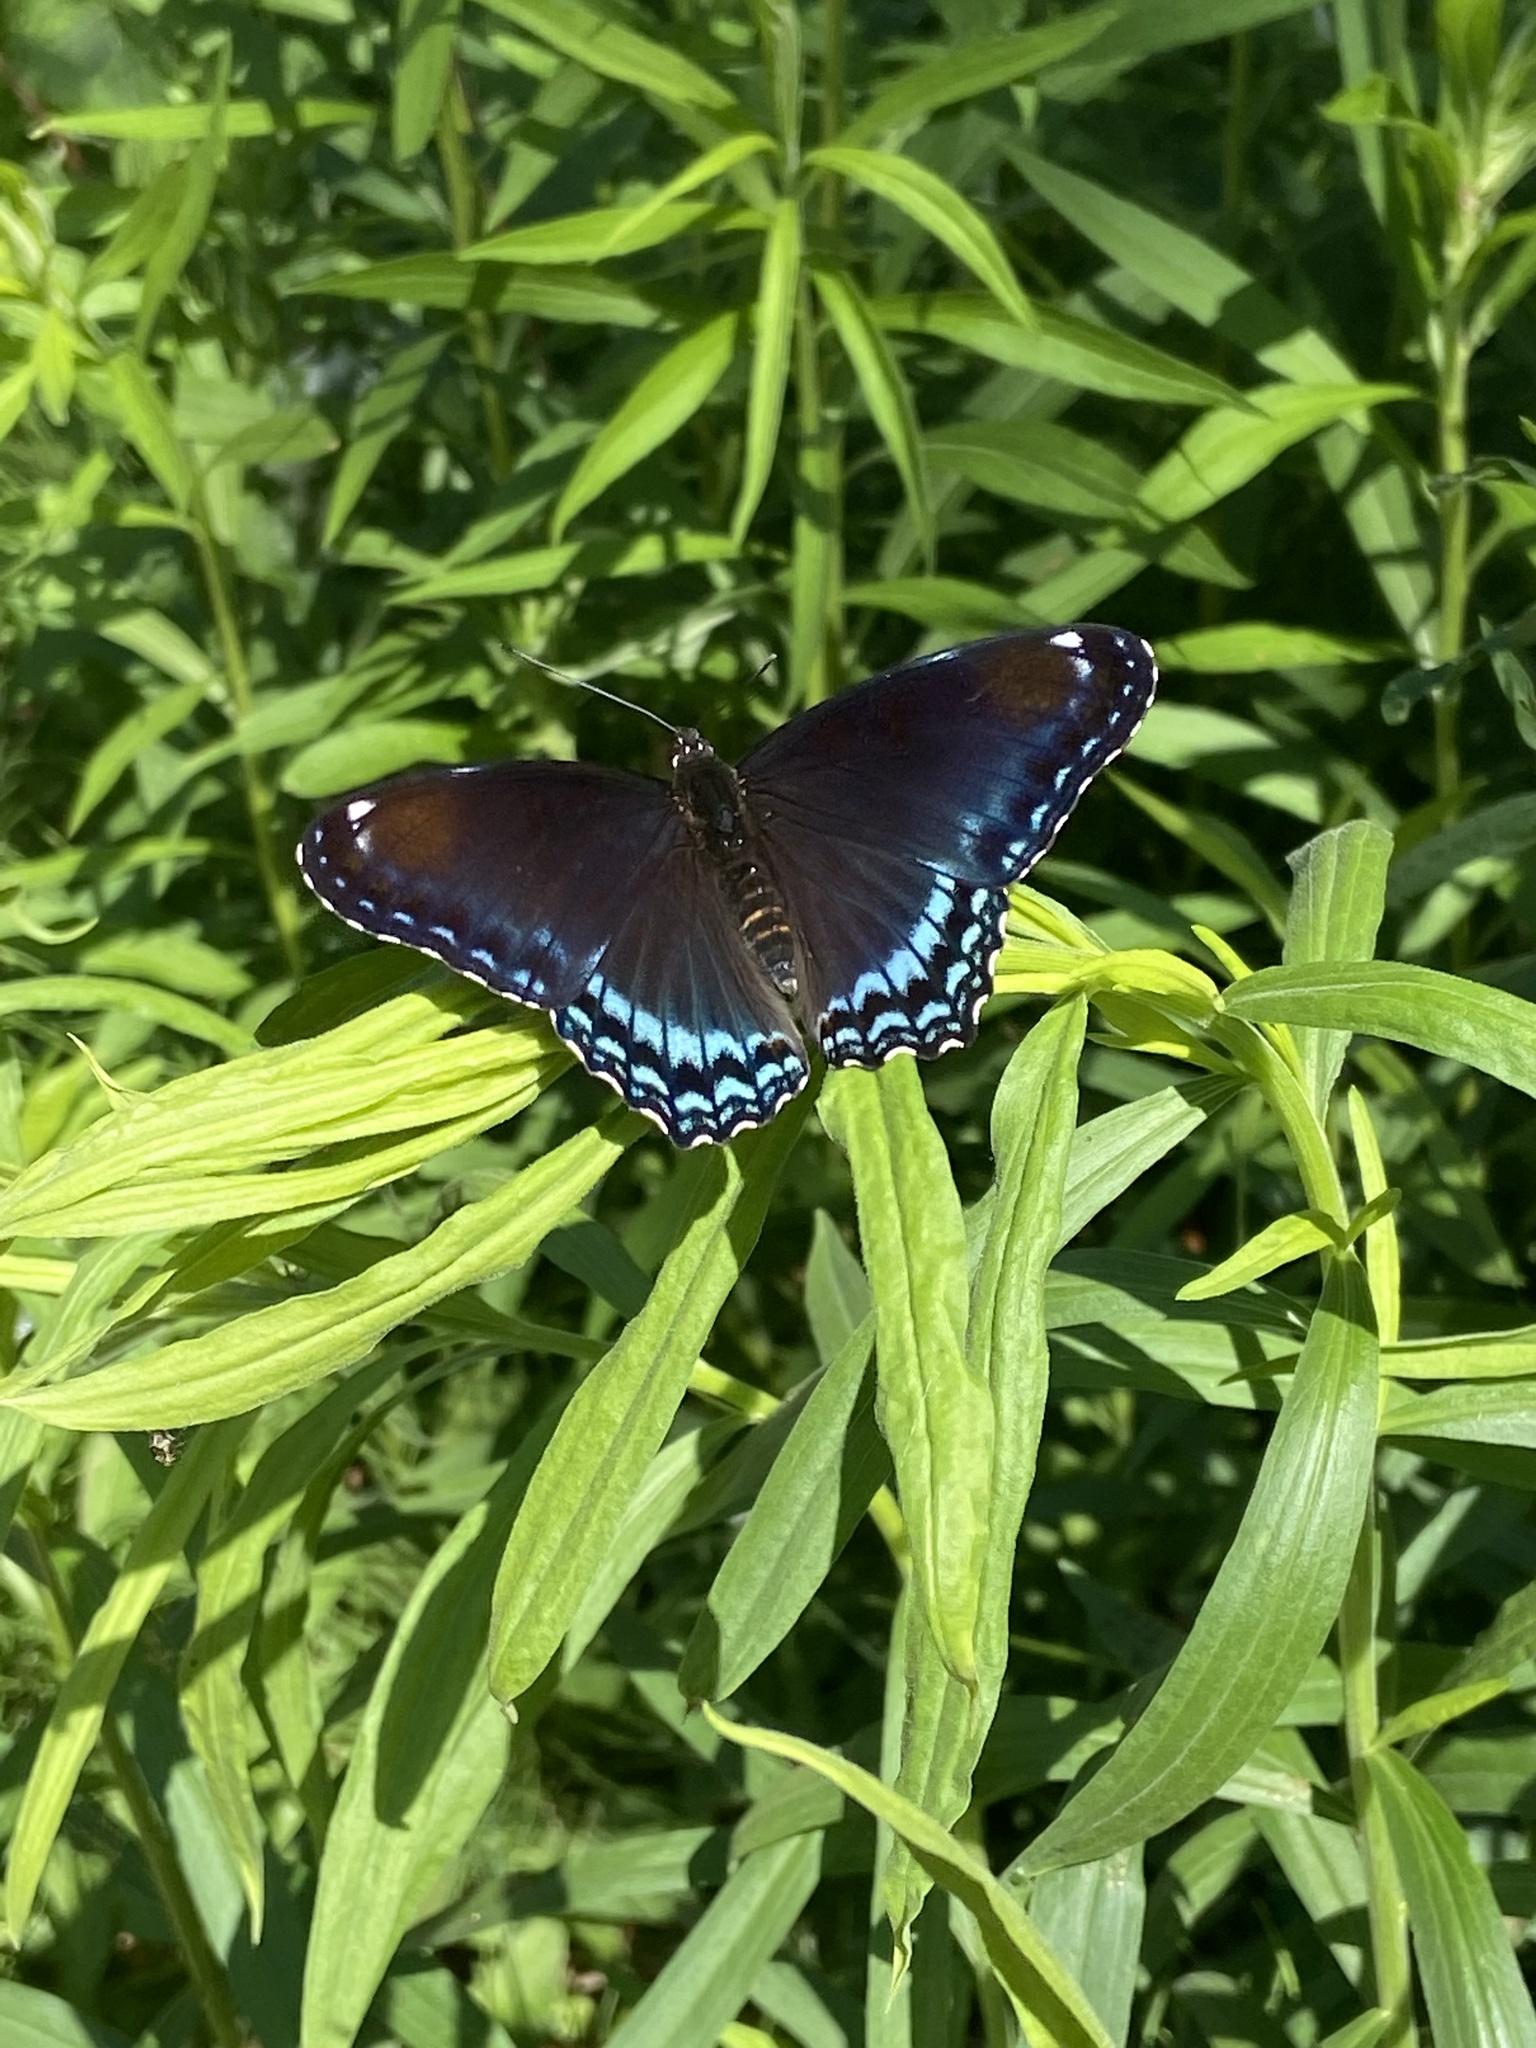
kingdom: Animalia
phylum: Arthropoda
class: Insecta
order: Lepidoptera
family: Nymphalidae
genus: Limenitis
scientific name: Limenitis astyanax
